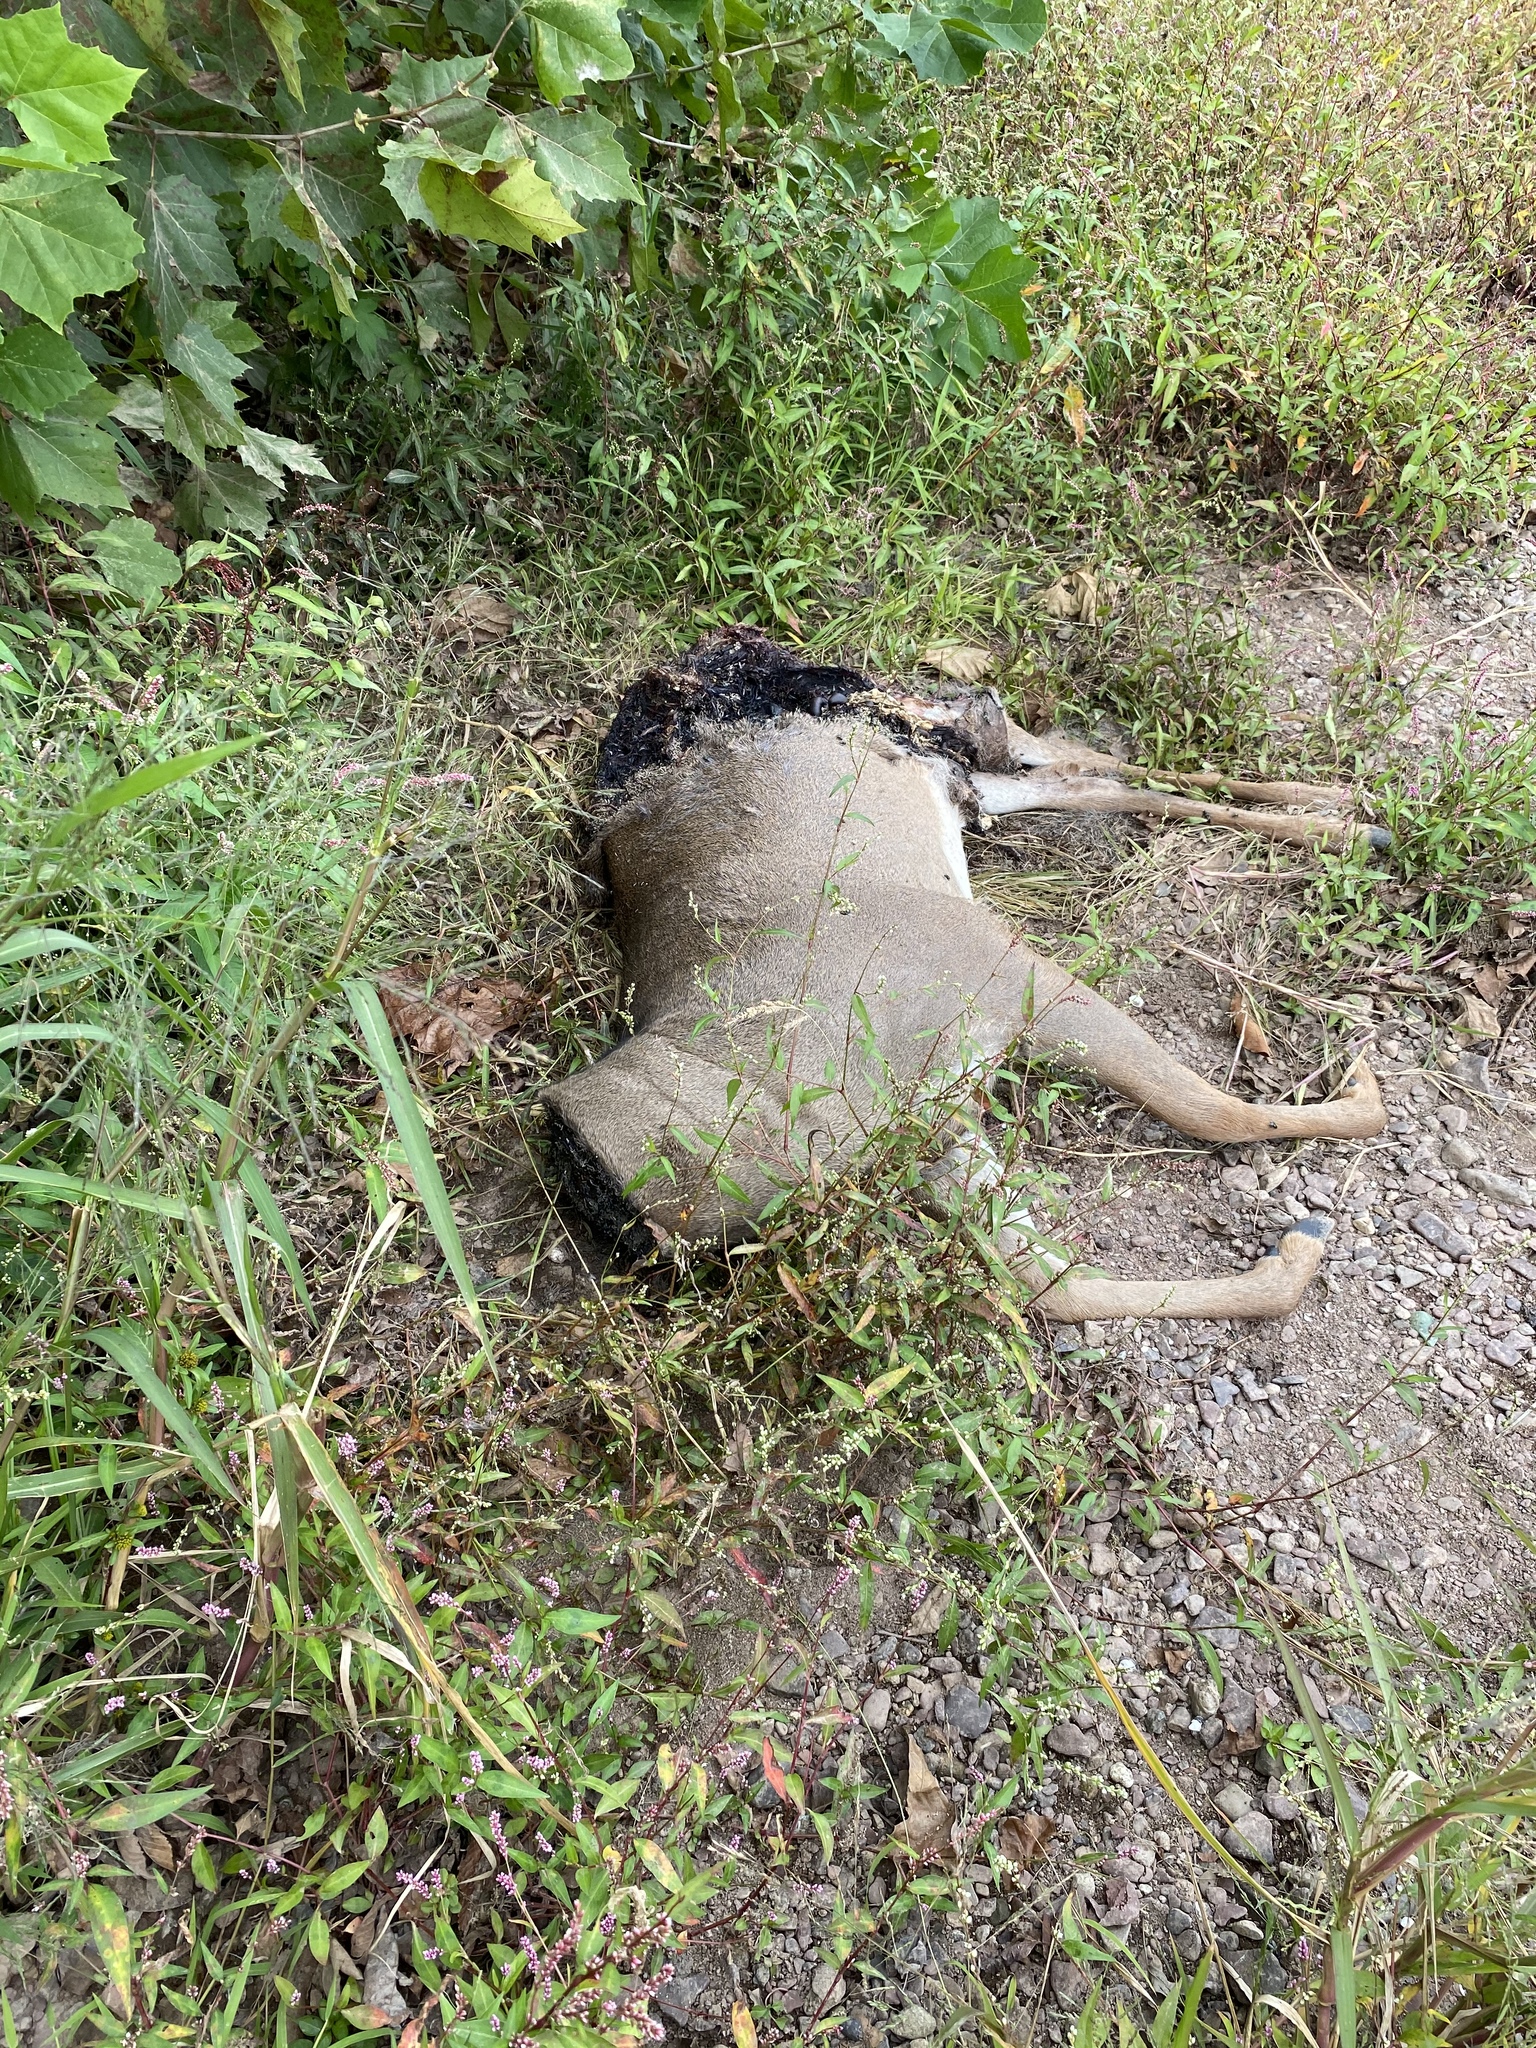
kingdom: Animalia
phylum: Chordata
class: Mammalia
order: Artiodactyla
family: Cervidae
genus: Odocoileus
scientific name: Odocoileus virginianus
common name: White-tailed deer
